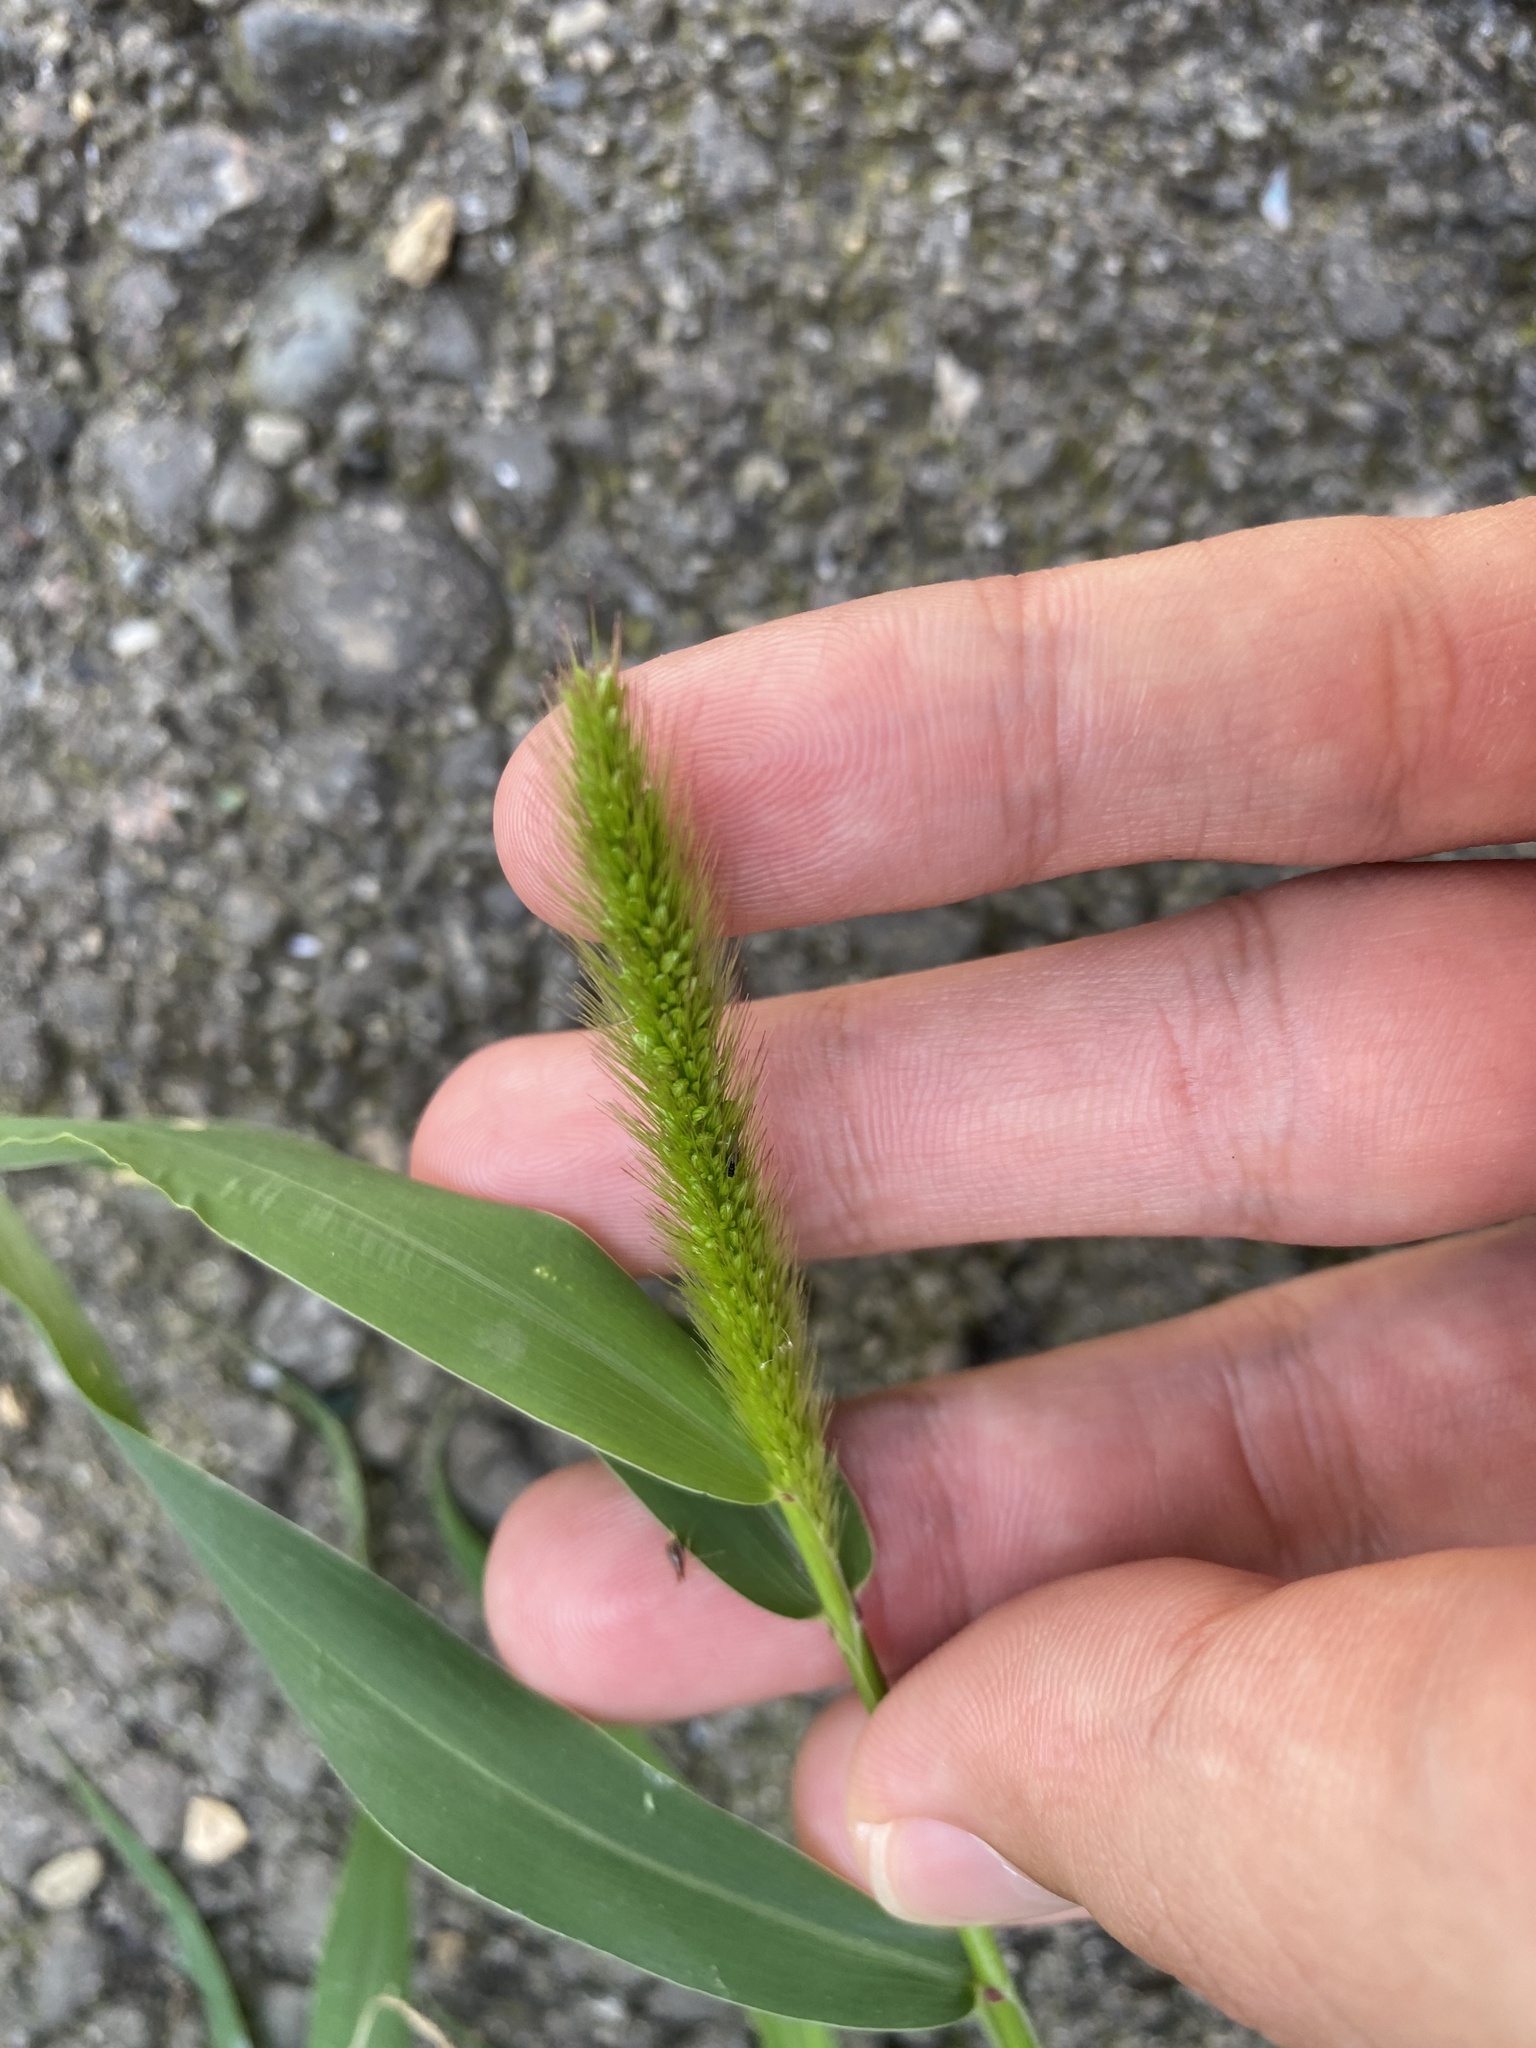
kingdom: Plantae
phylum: Tracheophyta
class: Liliopsida
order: Poales
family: Poaceae
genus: Setaria
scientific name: Setaria viridis
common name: Green bristlegrass
